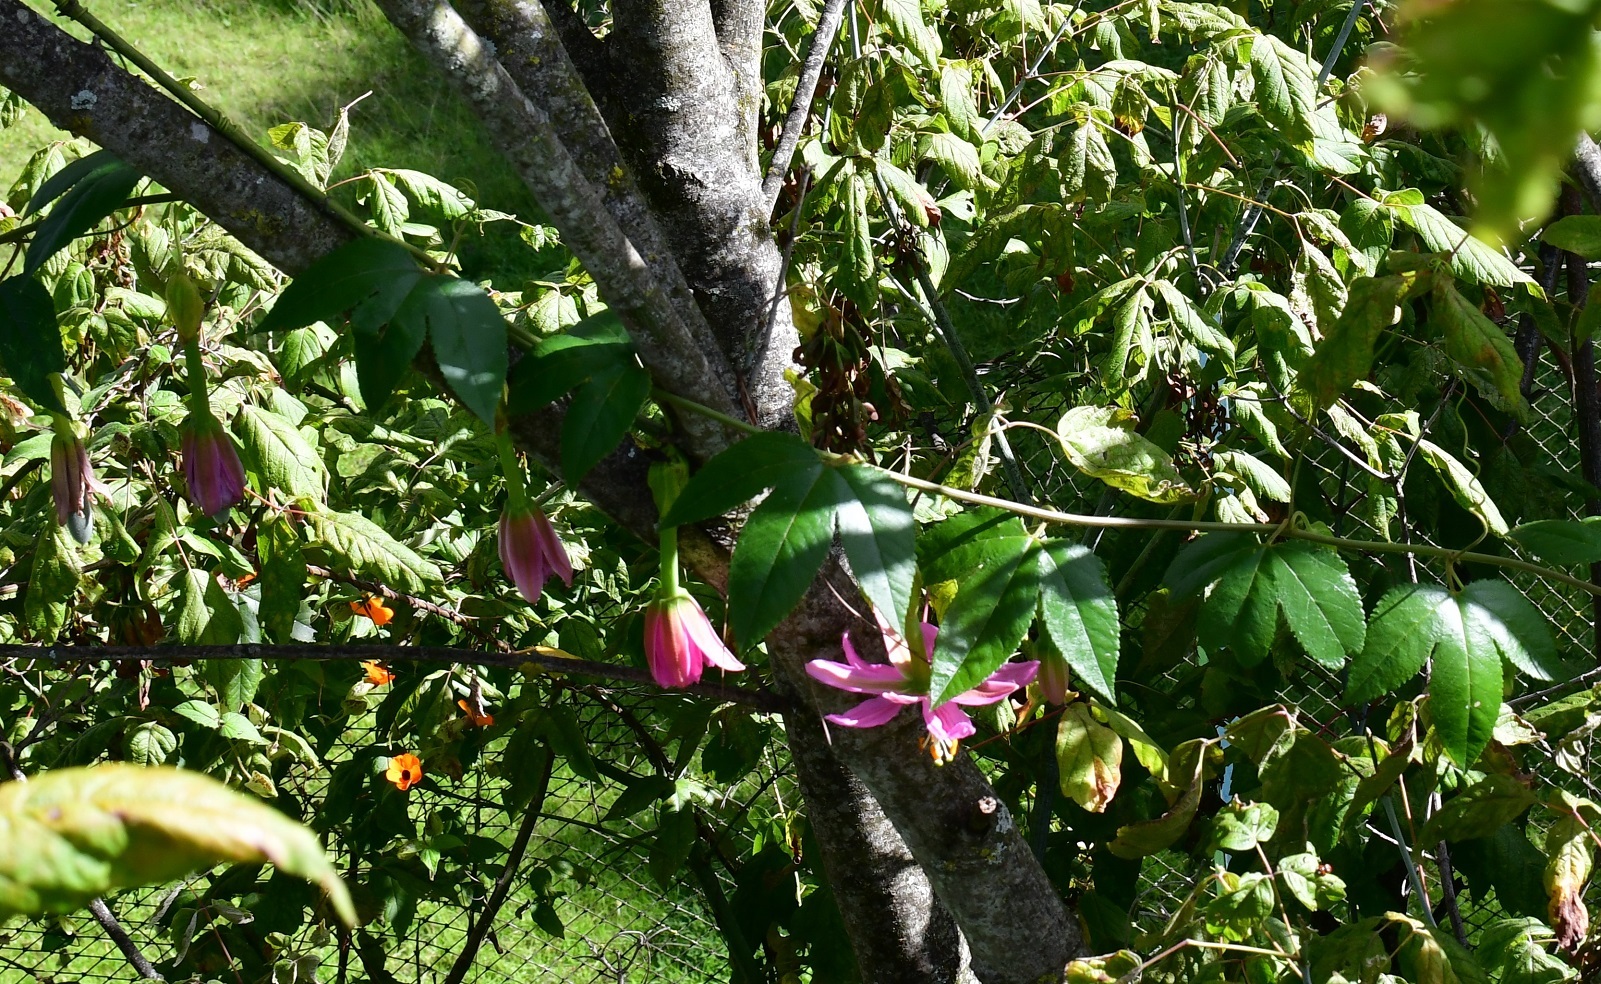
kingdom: Plantae
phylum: Tracheophyta
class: Magnoliopsida
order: Malpighiales
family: Passifloraceae
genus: Passiflora
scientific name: Passiflora tarminiana
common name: Banana poka
